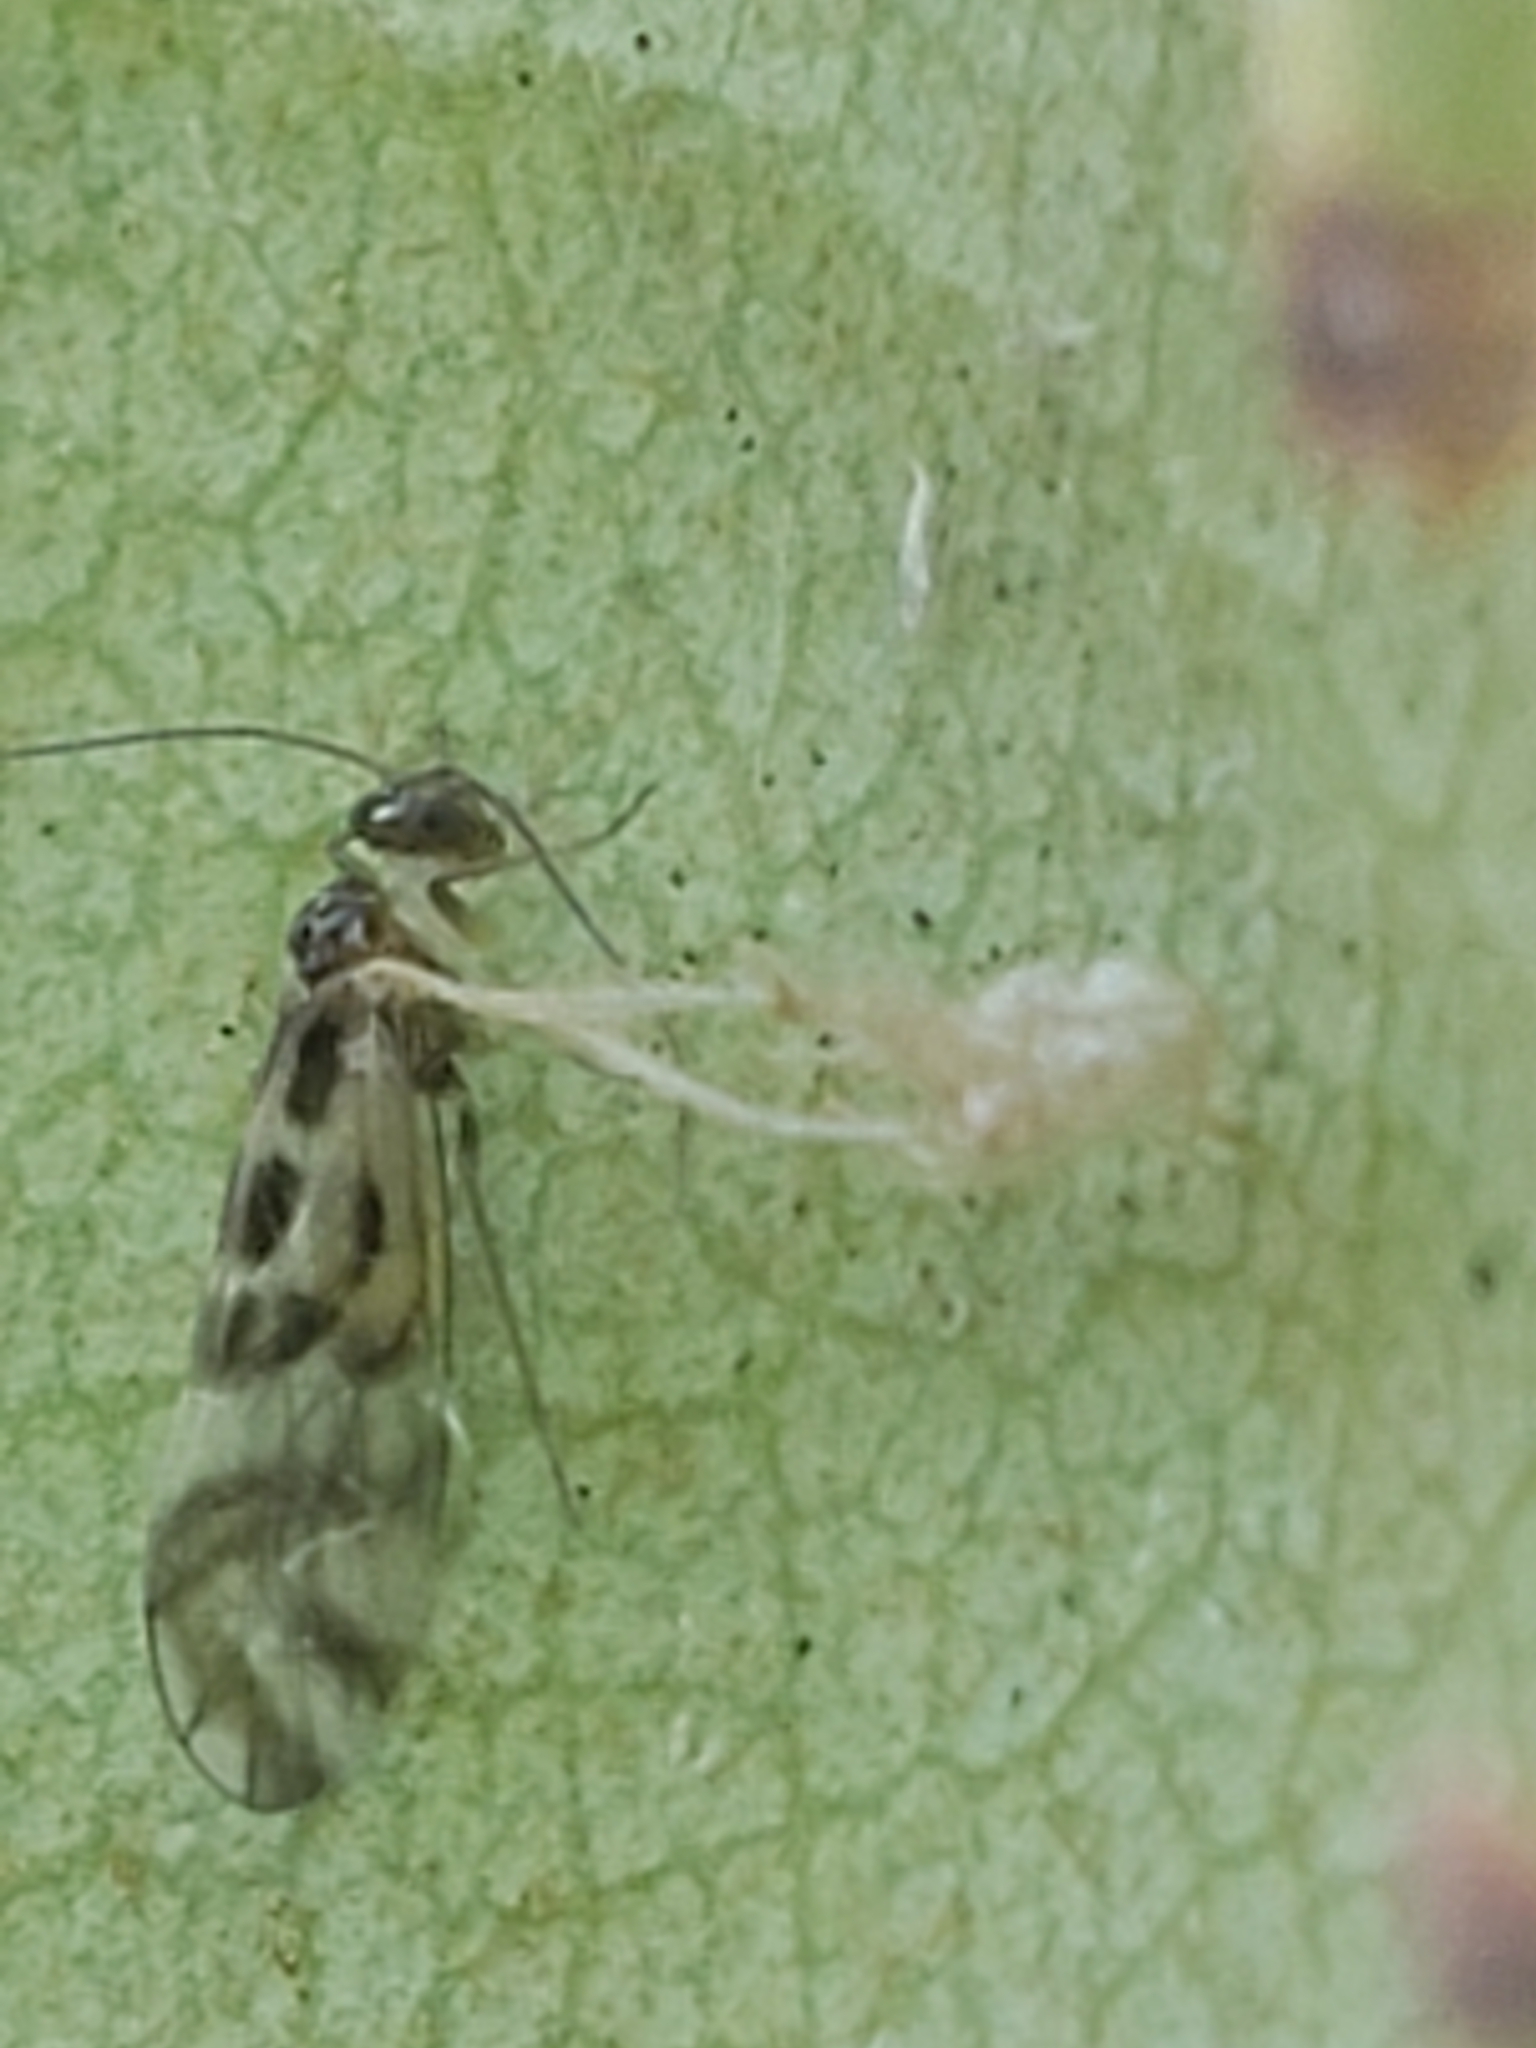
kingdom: Animalia
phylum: Arthropoda
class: Insecta
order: Psocodea
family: Stenopsocidae
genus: Graphopsocus
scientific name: Graphopsocus cruciatus
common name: Lizard bark louse
